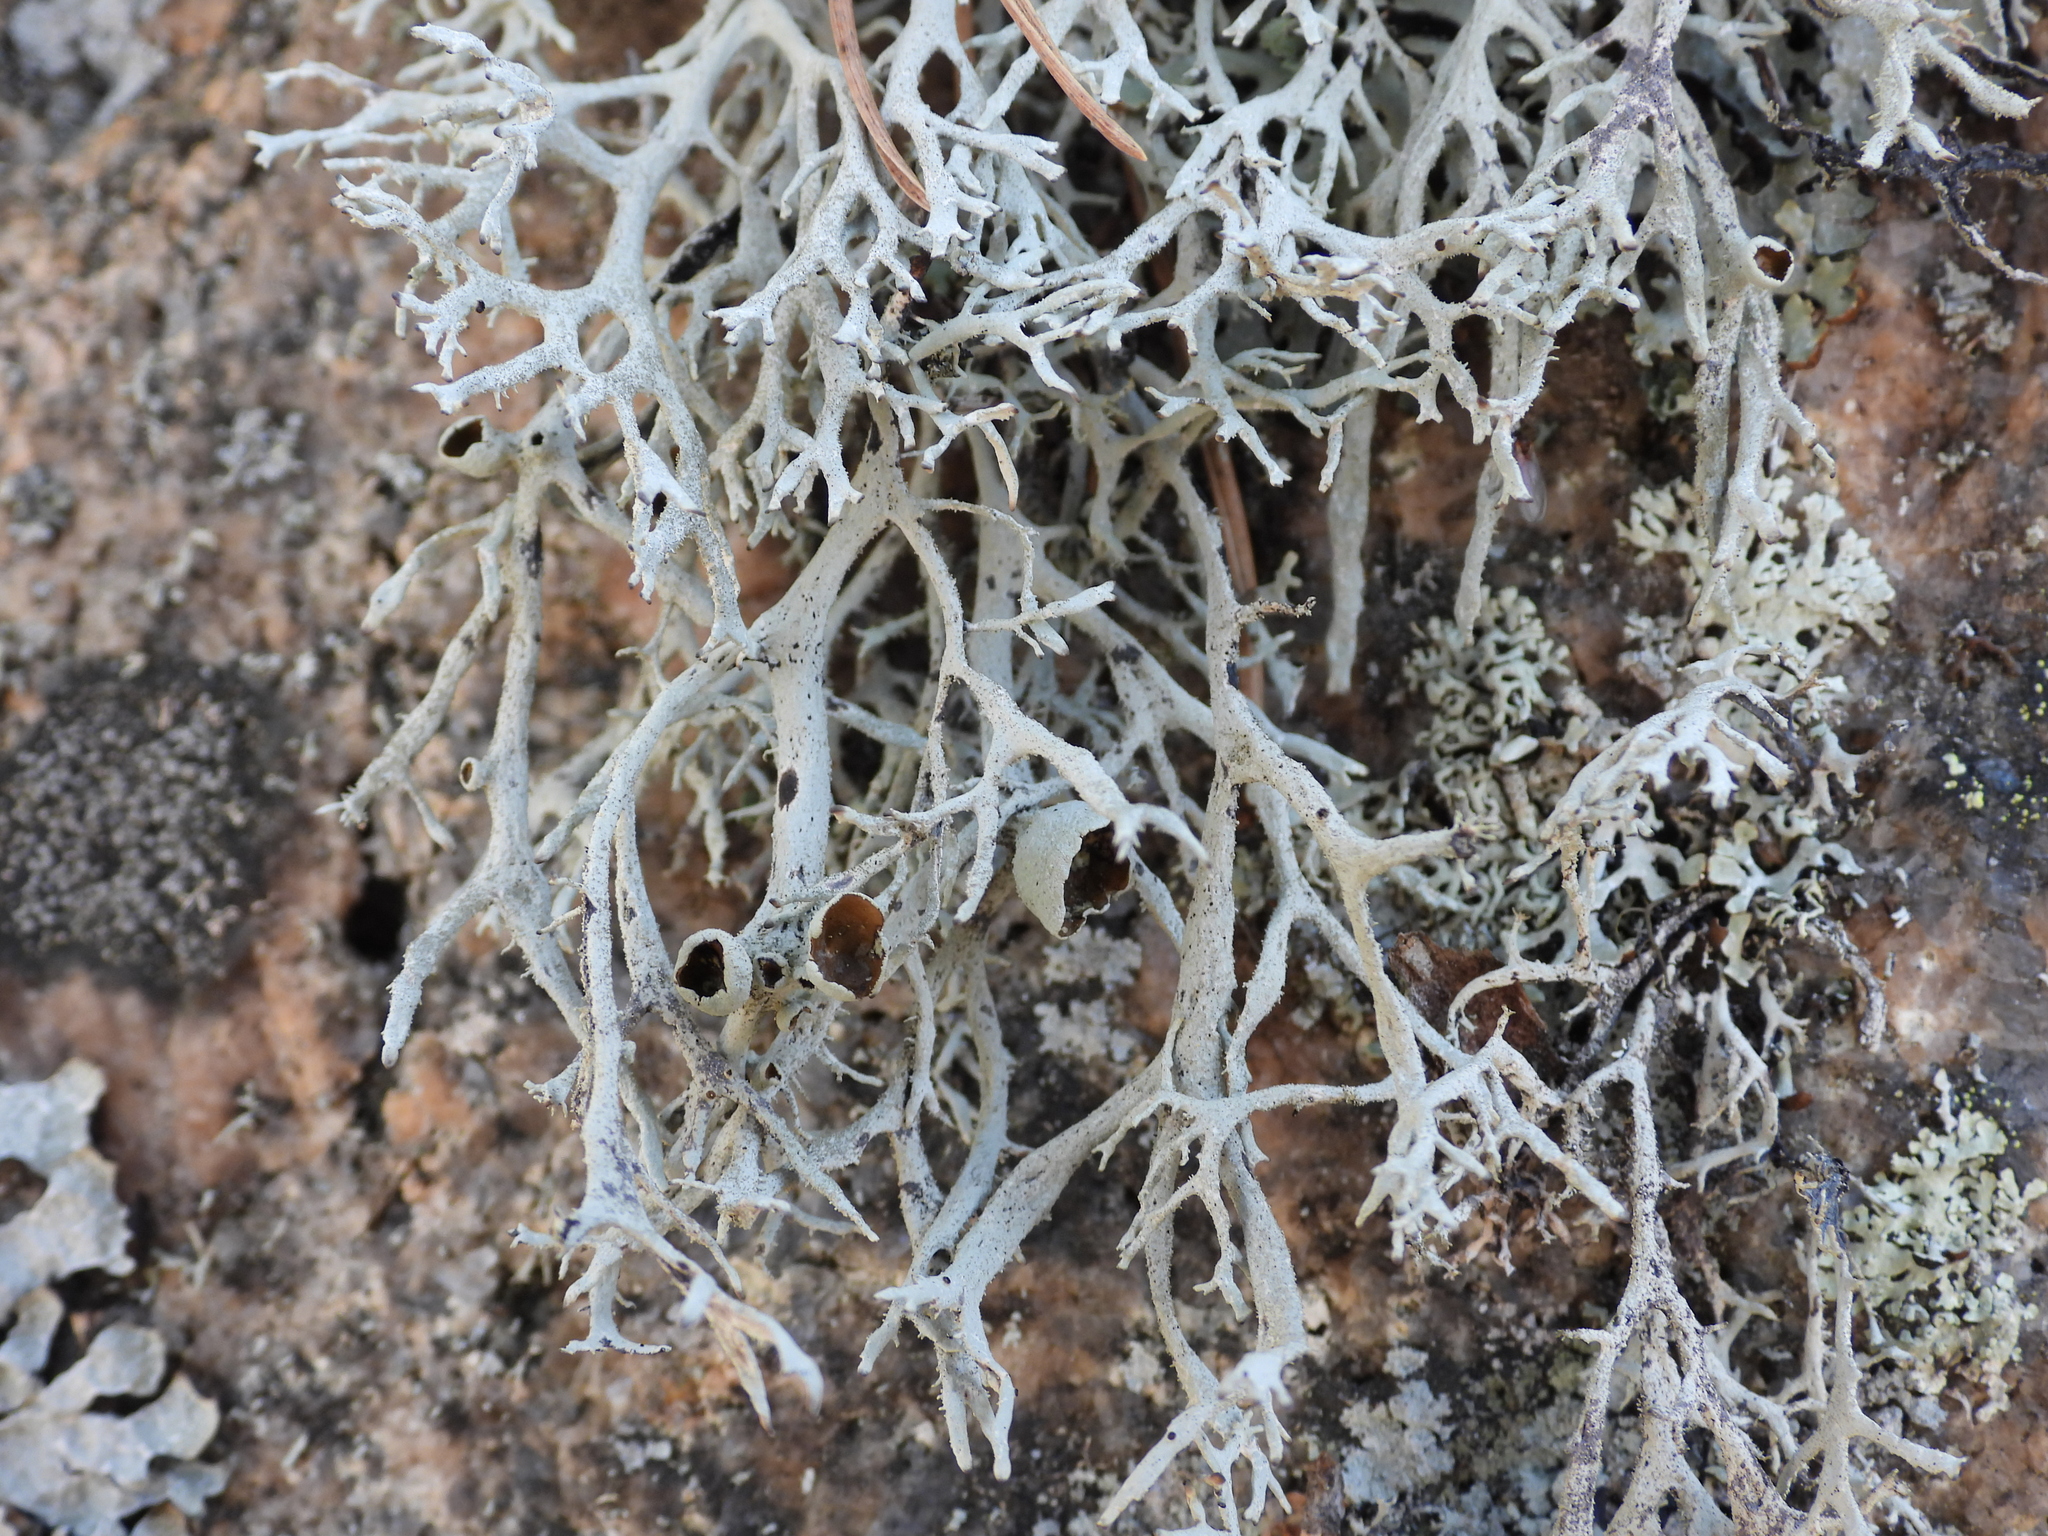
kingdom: Fungi
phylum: Ascomycota
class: Lecanoromycetes
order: Lecanorales
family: Parmeliaceae
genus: Pseudevernia
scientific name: Pseudevernia furfuracea
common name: Tree moss
